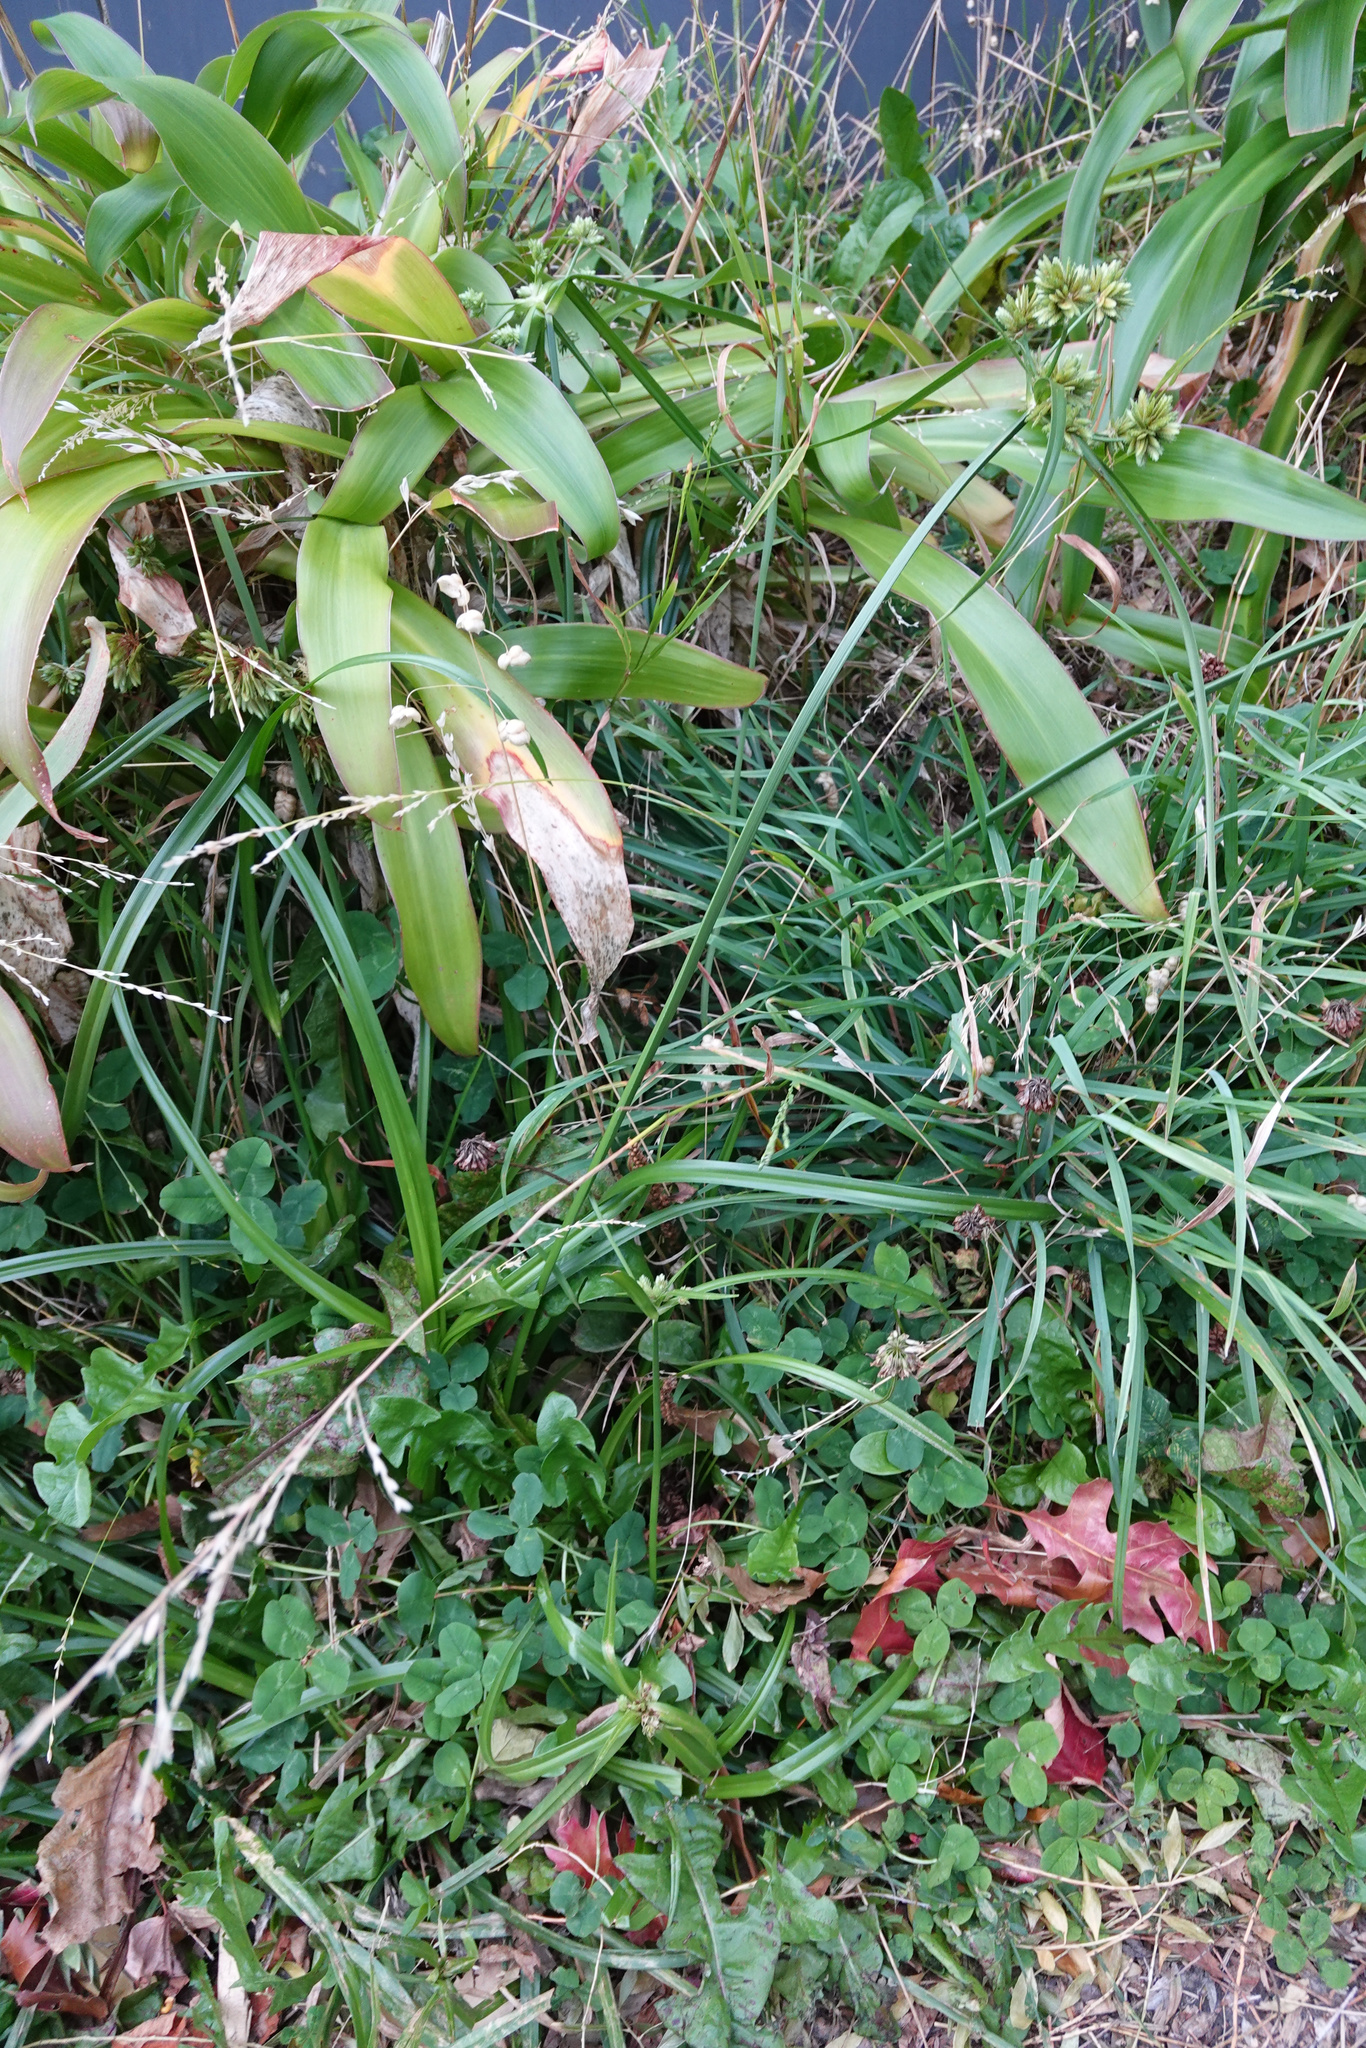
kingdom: Plantae
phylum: Tracheophyta
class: Liliopsida
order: Poales
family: Cyperaceae
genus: Cyperus
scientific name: Cyperus eragrostis
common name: Tall flatsedge
